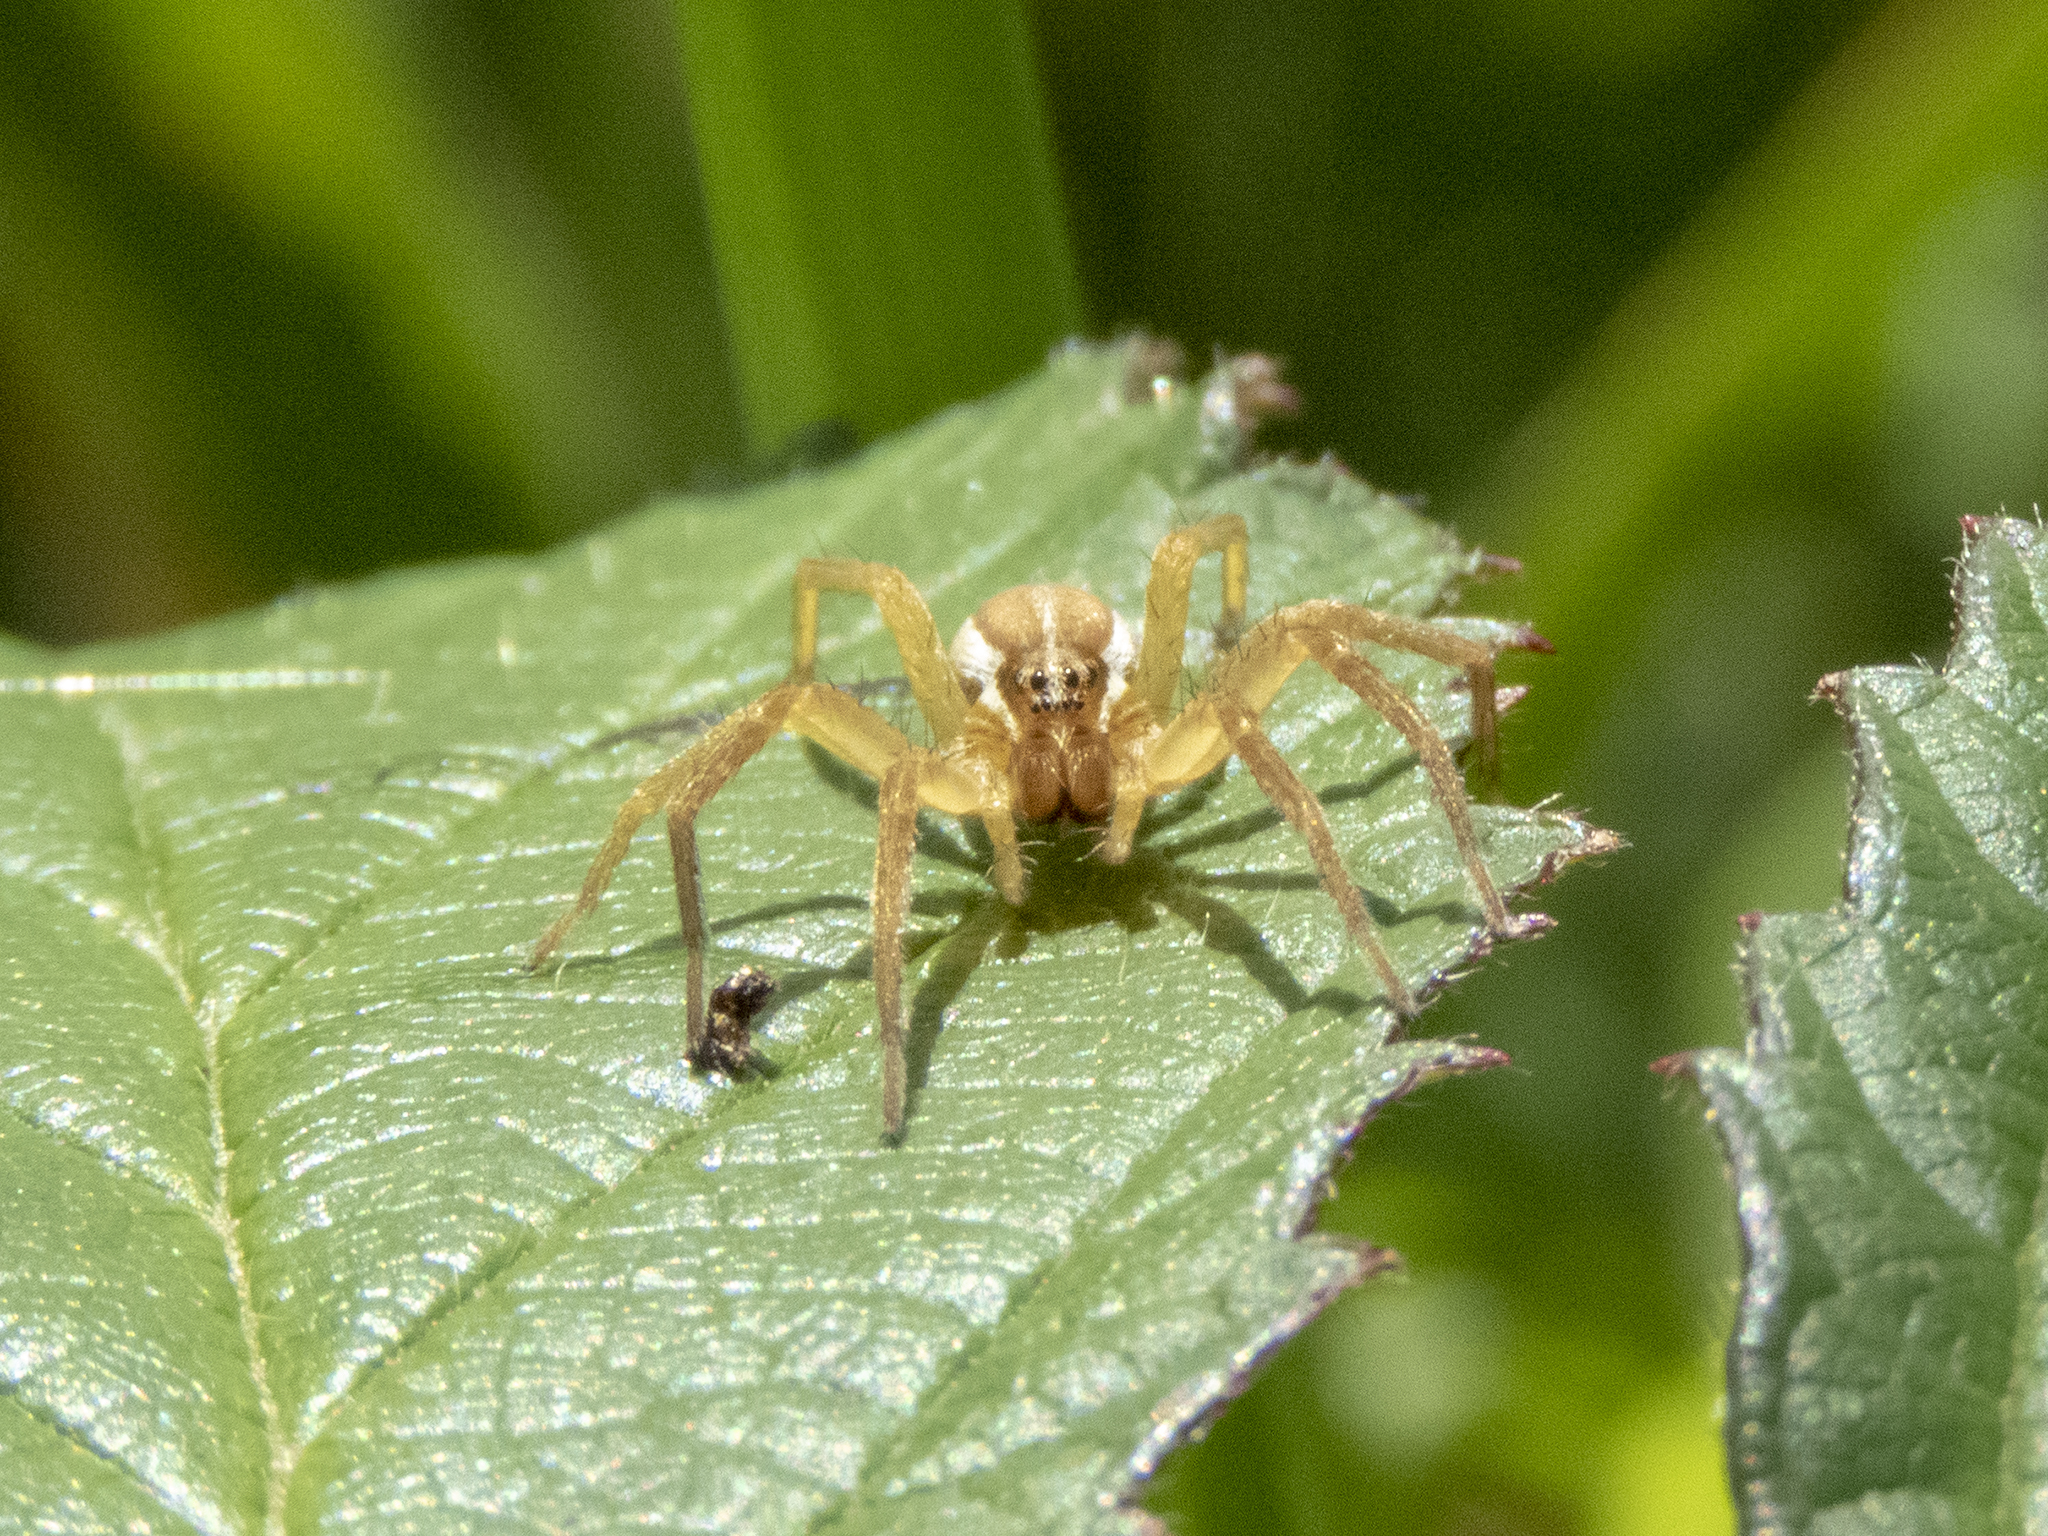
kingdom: Animalia
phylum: Arthropoda
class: Arachnida
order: Araneae
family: Pisauridae
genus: Dolomedes
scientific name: Dolomedes minor
